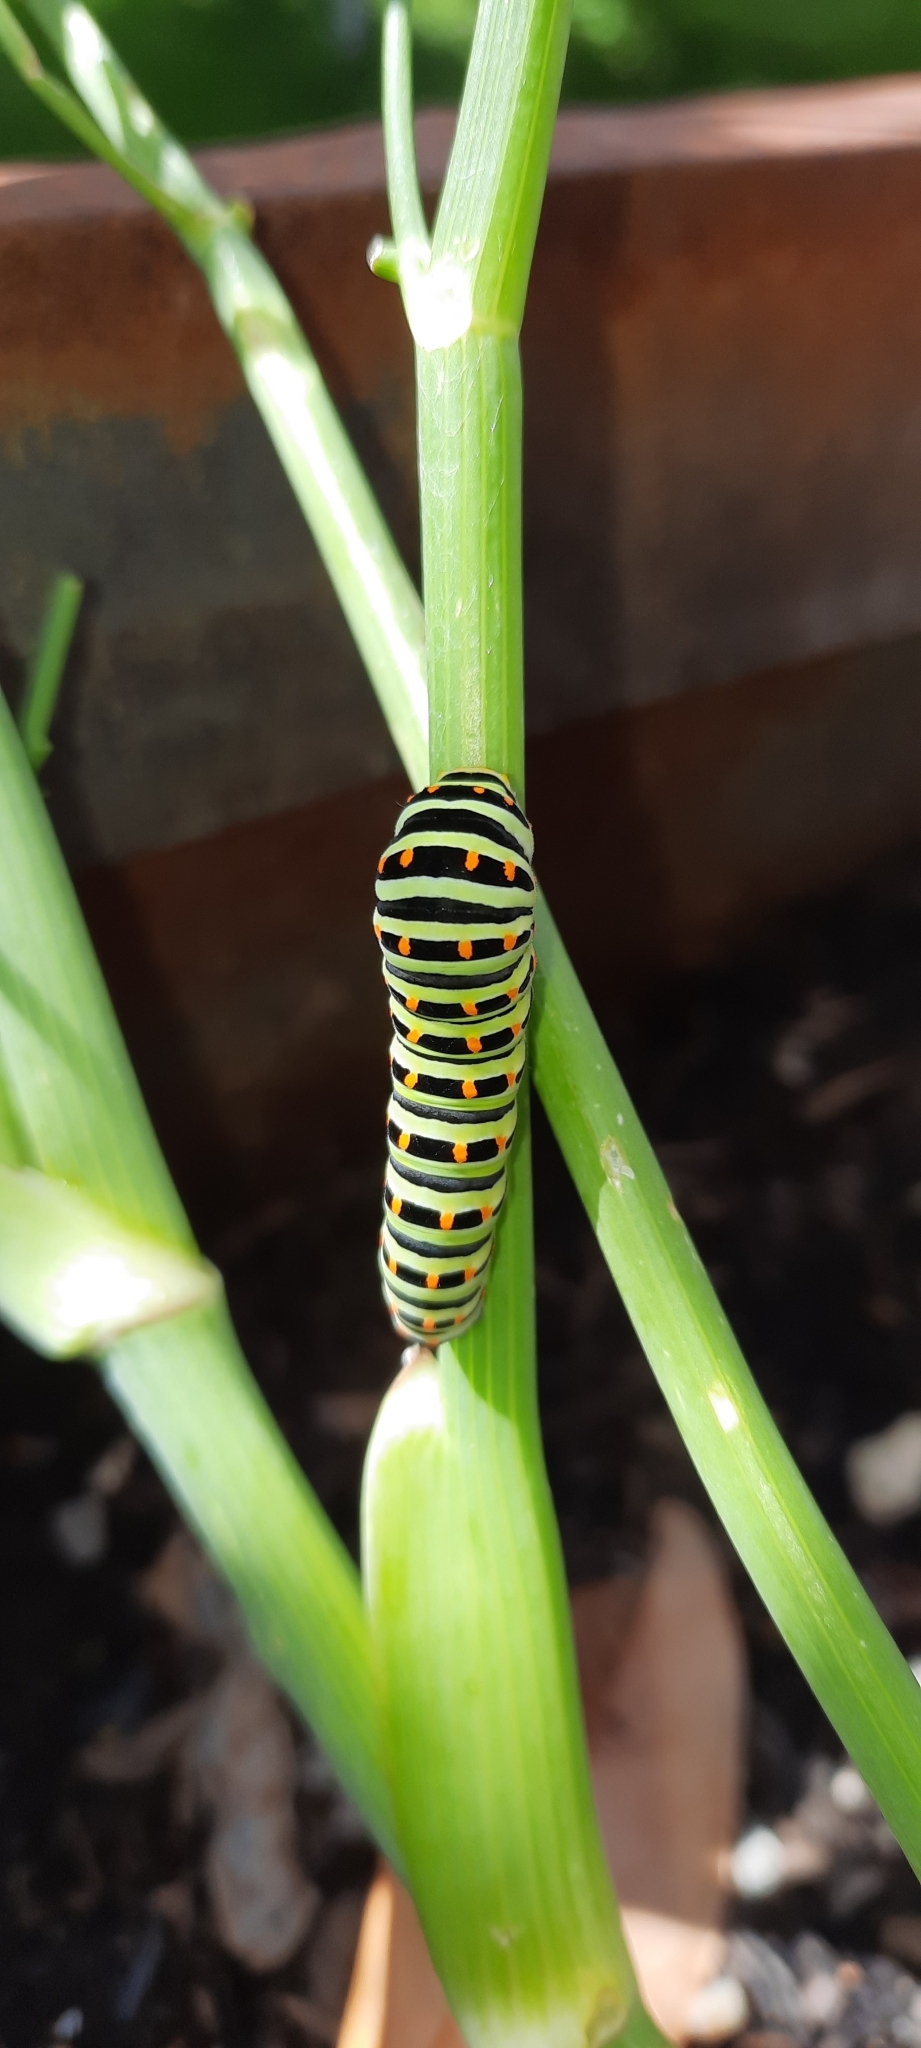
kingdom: Animalia
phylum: Arthropoda
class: Insecta
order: Lepidoptera
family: Papilionidae
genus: Papilio
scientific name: Papilio machaon
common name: Swallowtail
